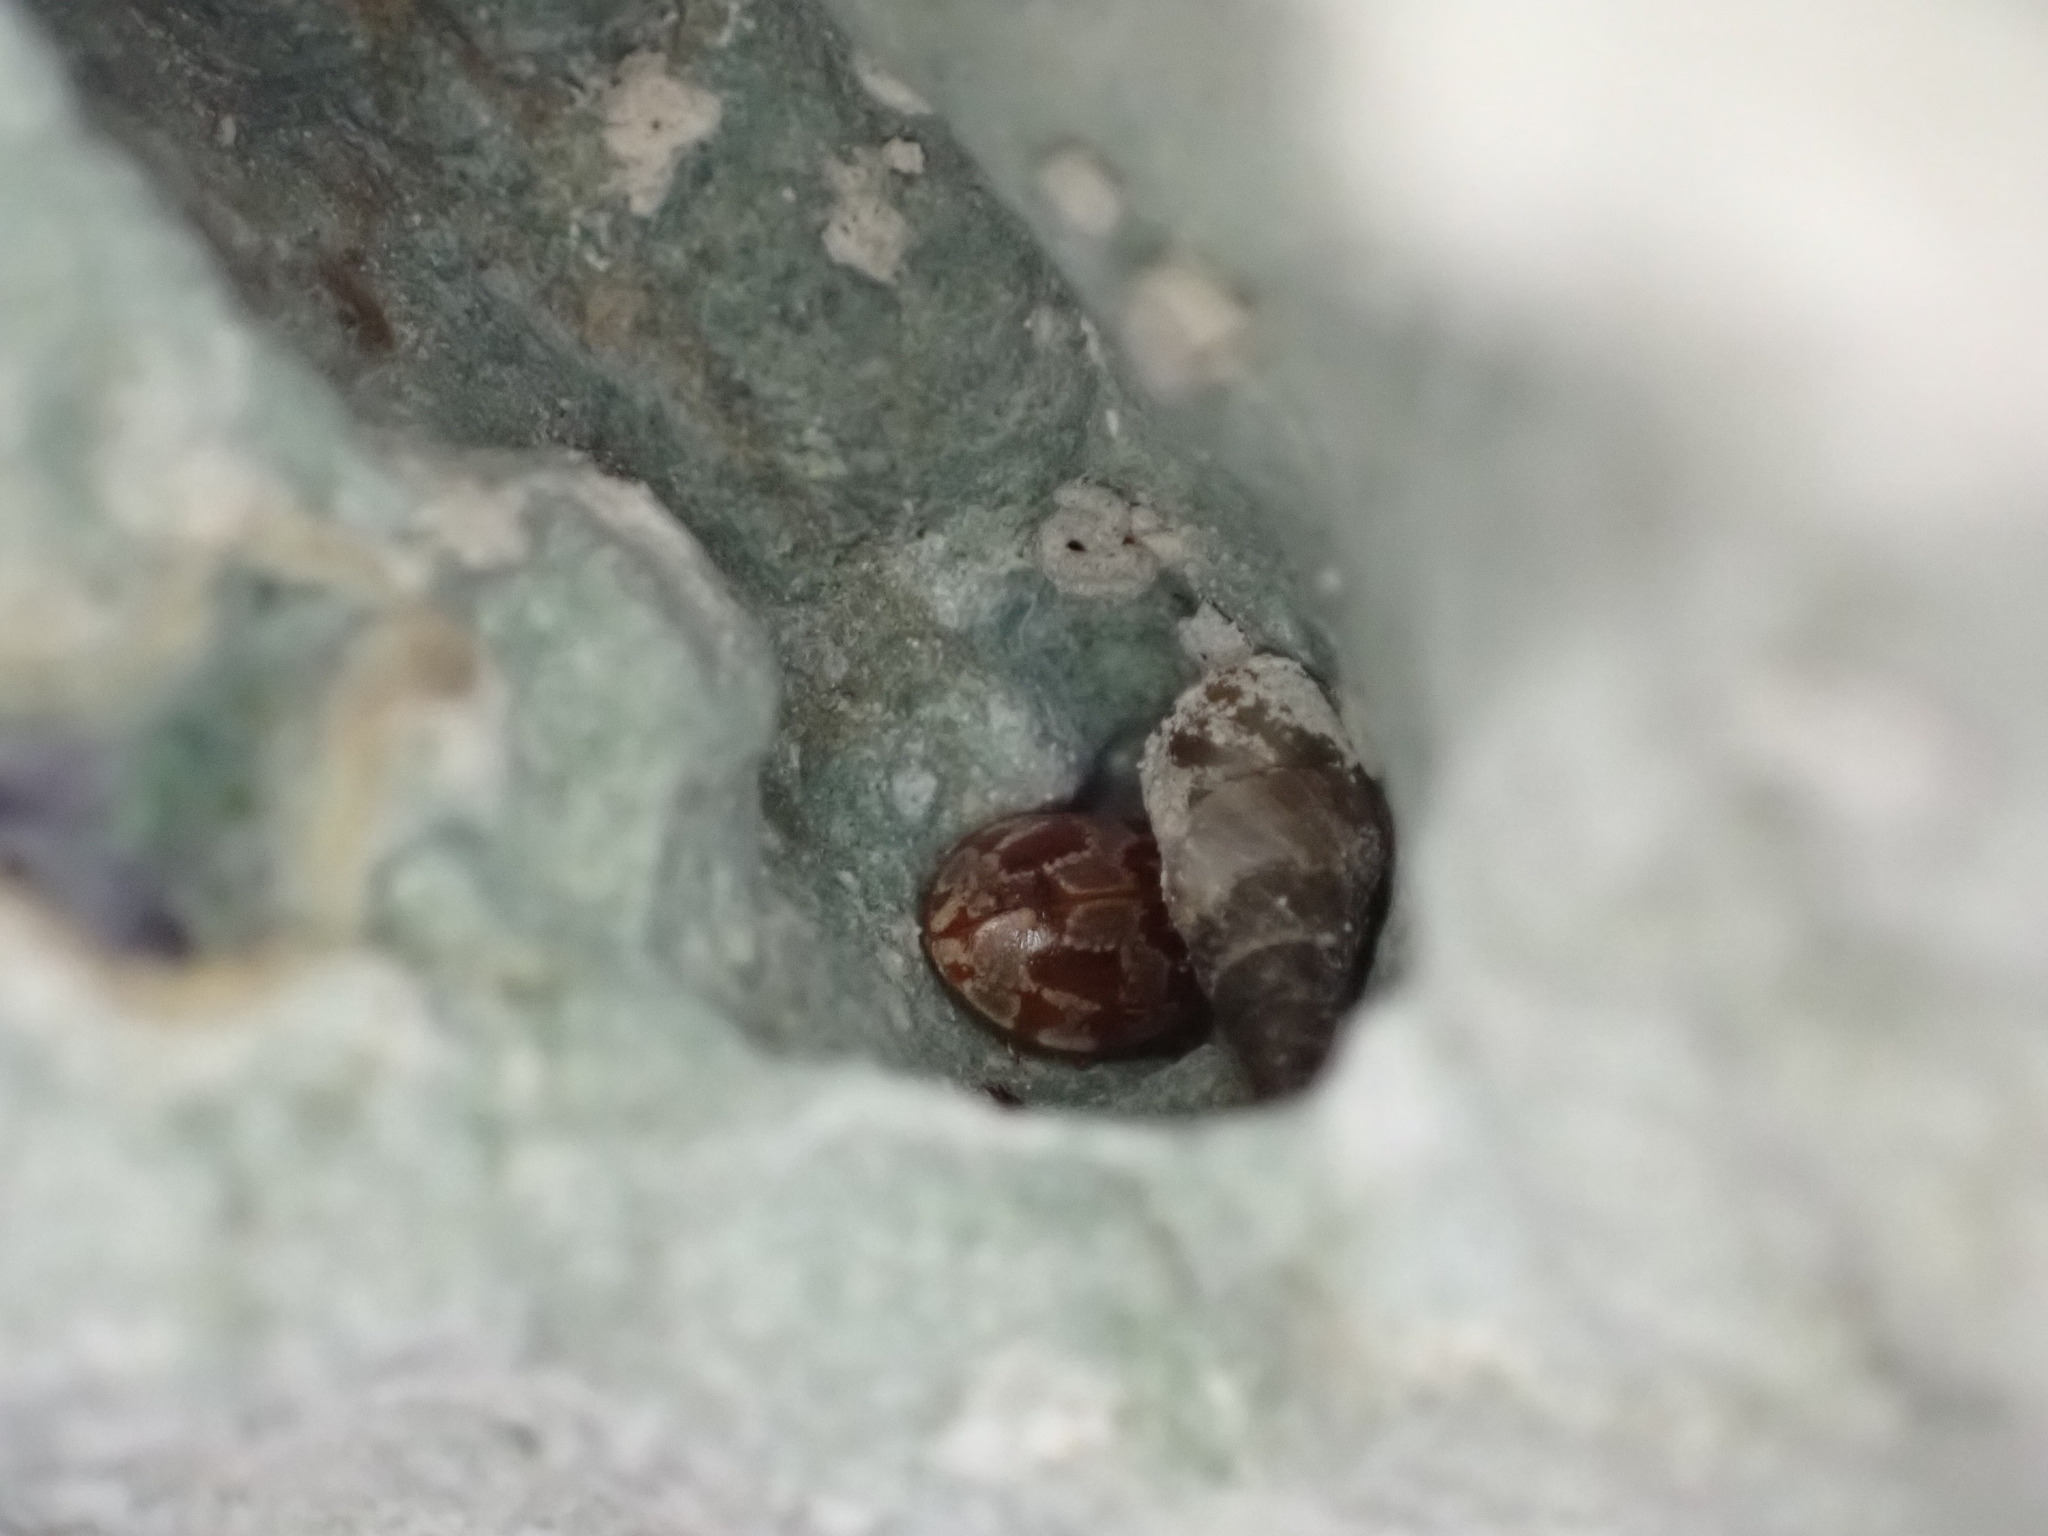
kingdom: Animalia
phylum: Arthropoda
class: Insecta
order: Coleoptera
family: Coccinellidae
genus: Myrrha
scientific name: Myrrha octodecimguttata
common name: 18-spot ladybird
